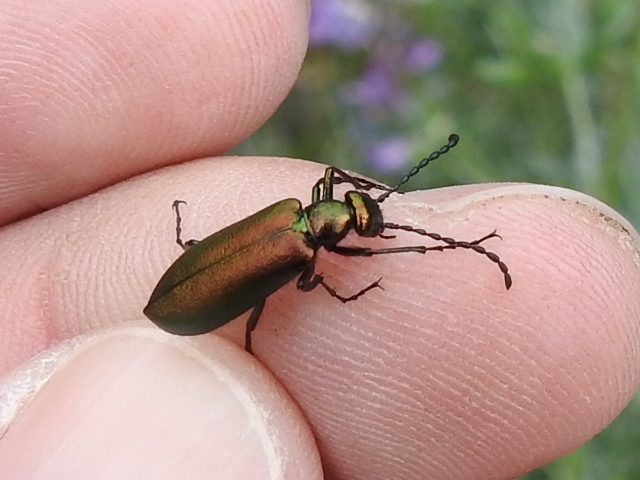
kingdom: Animalia
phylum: Arthropoda
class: Insecta
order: Coleoptera
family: Meloidae
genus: Lytta
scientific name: Lytta chloris
